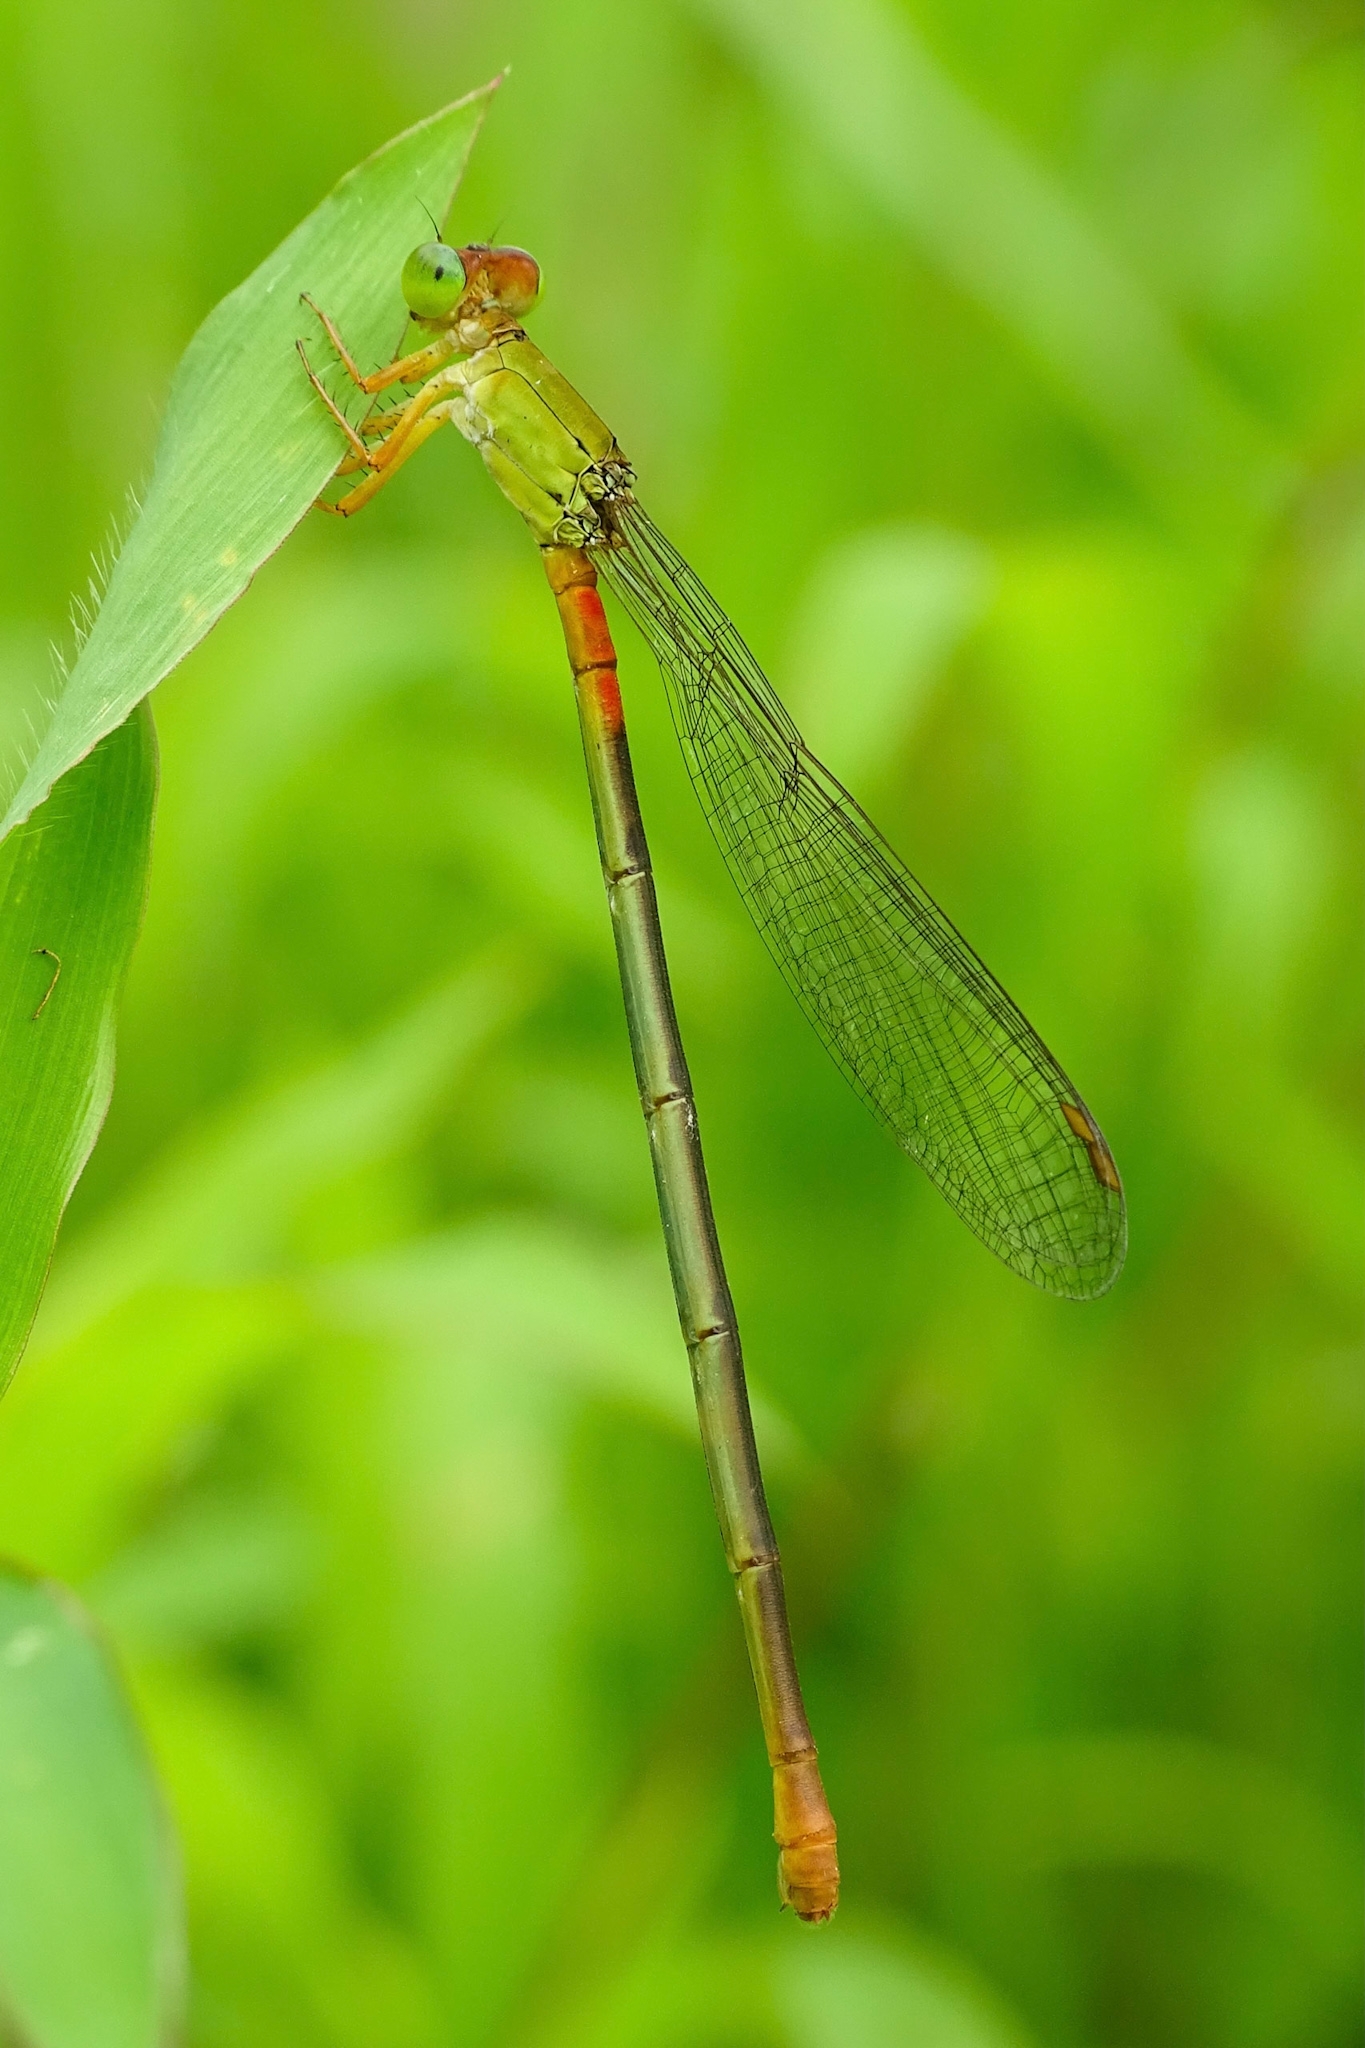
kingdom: Animalia
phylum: Arthropoda
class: Insecta
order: Odonata
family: Coenagrionidae
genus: Ceriagrion
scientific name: Ceriagrion cerinorubellum
